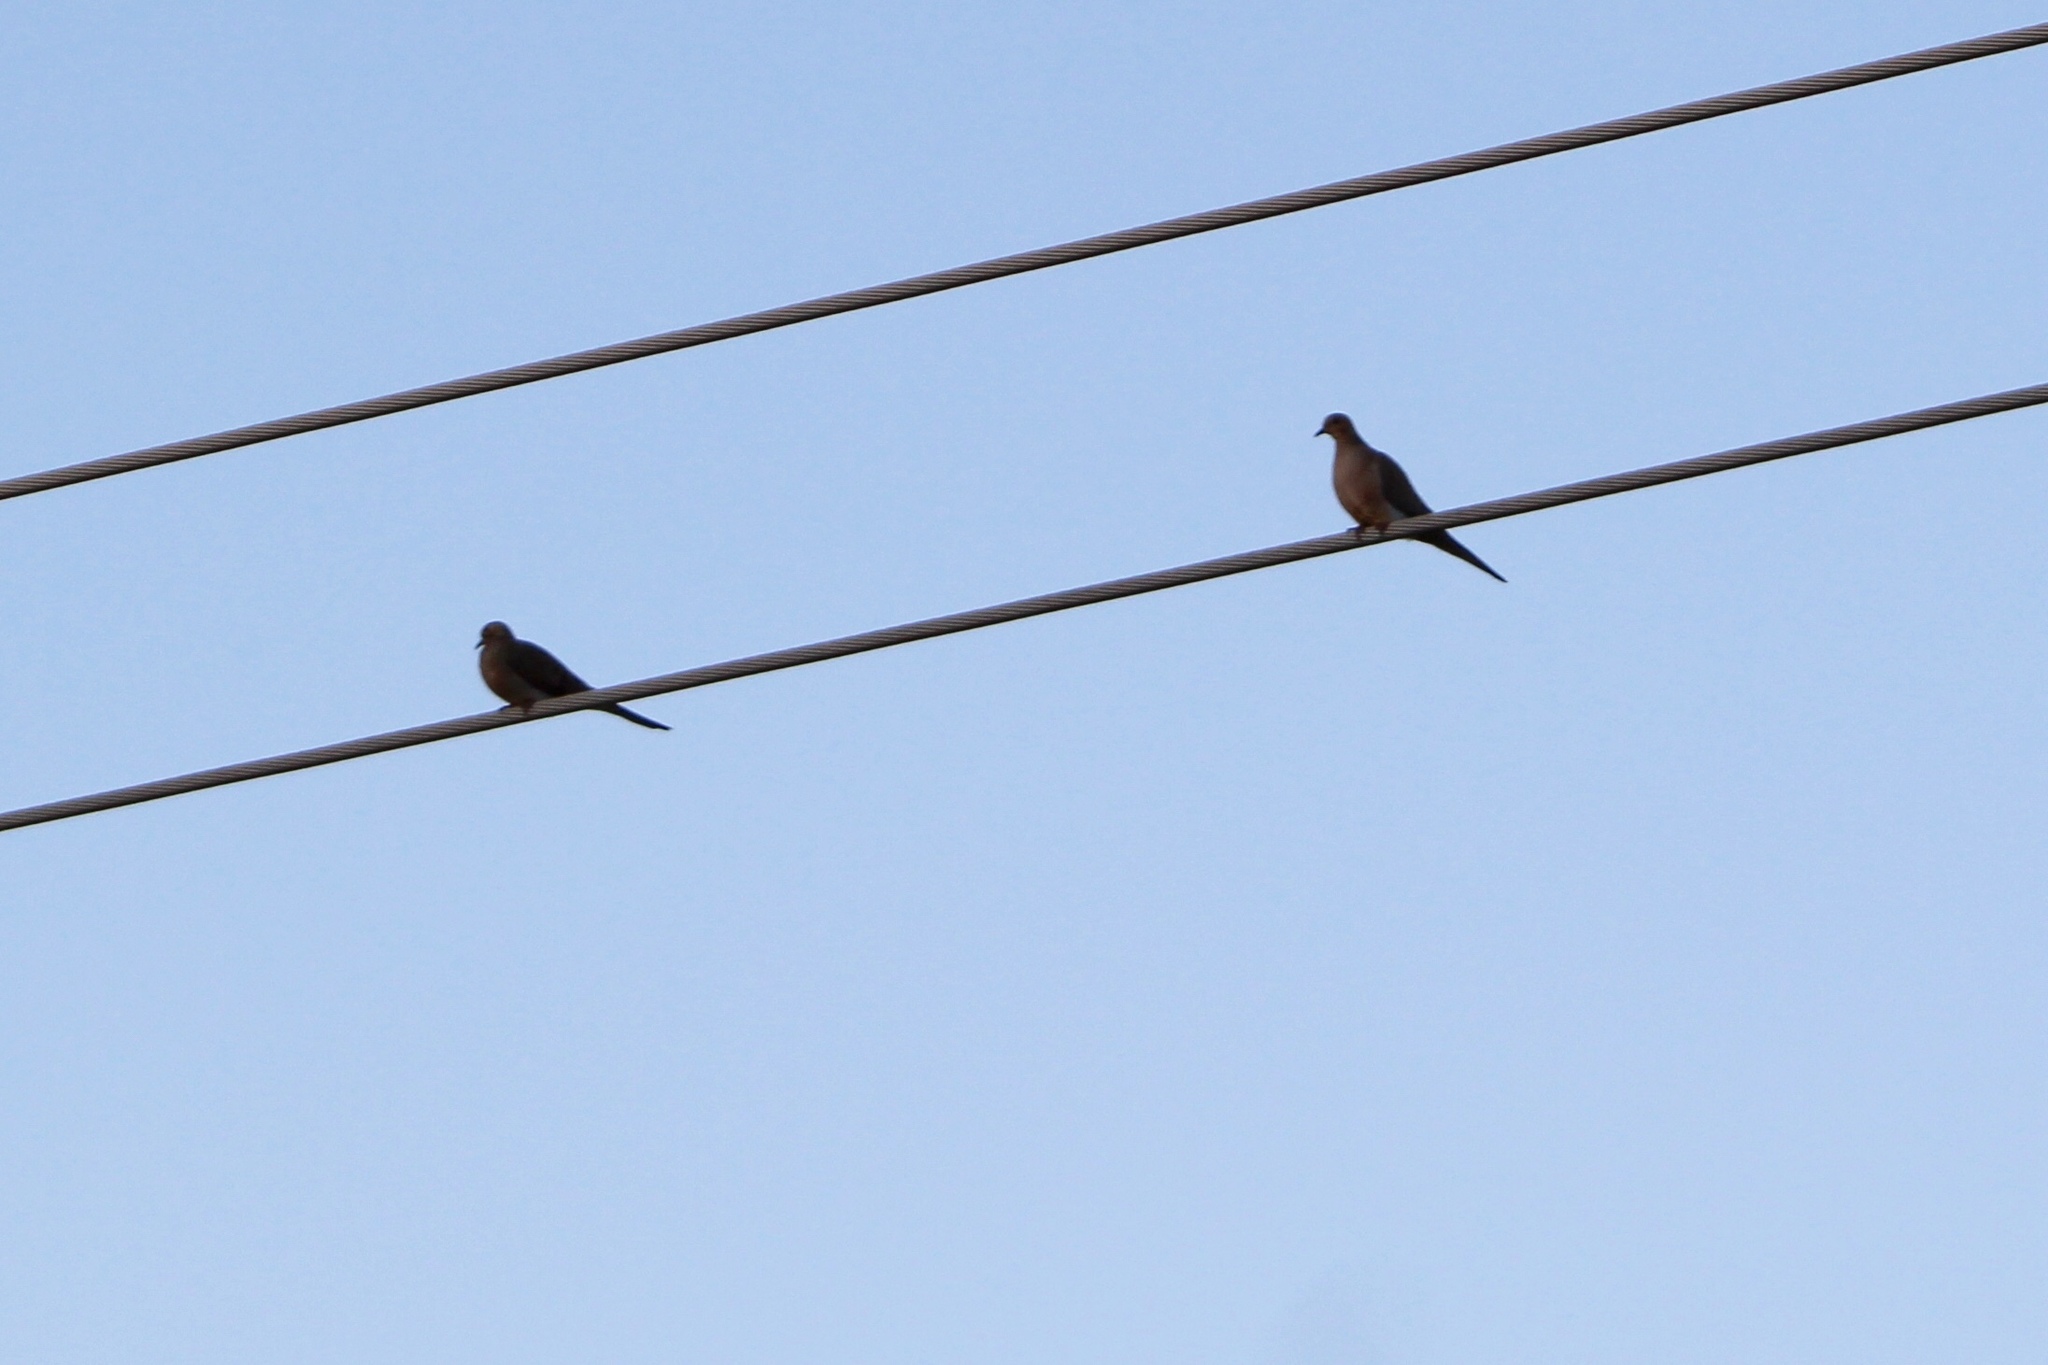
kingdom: Animalia
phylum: Chordata
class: Aves
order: Columbiformes
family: Columbidae
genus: Zenaida
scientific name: Zenaida macroura
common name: Mourning dove
